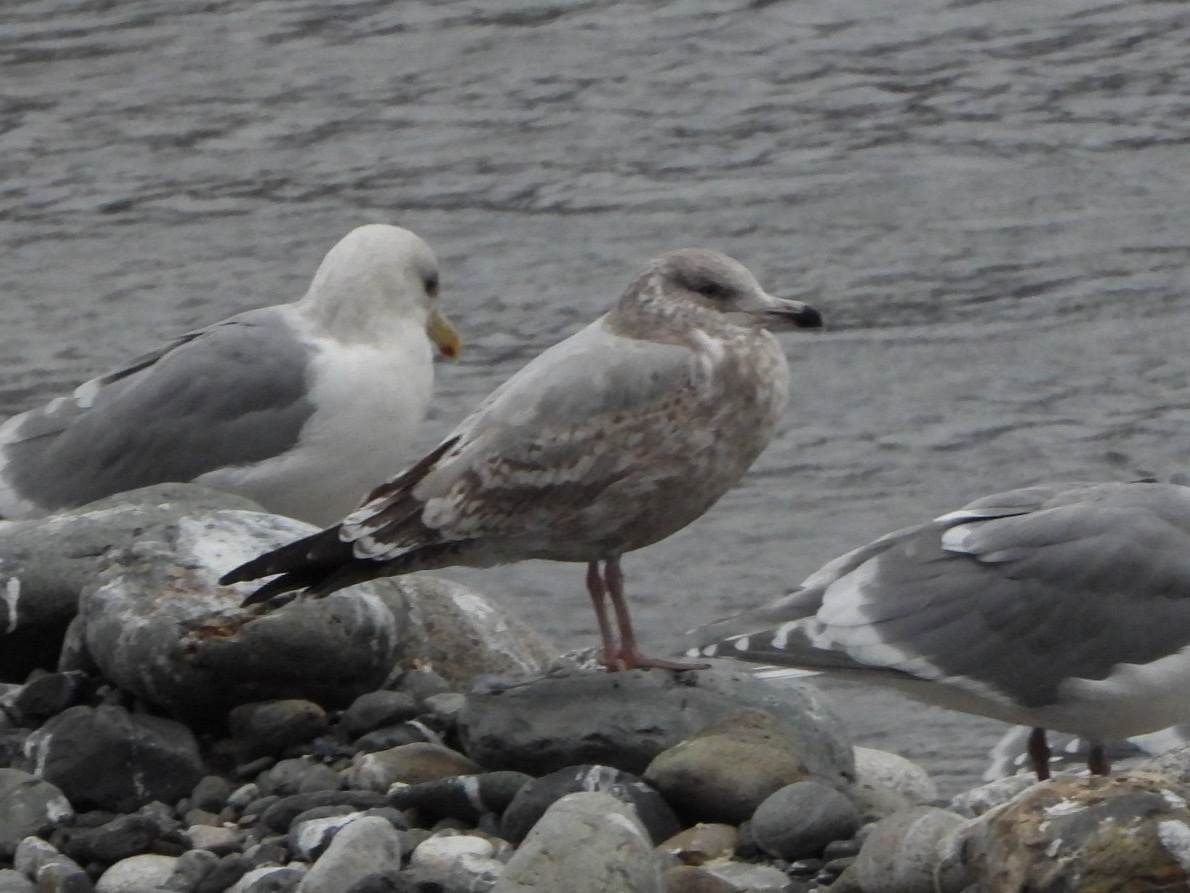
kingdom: Animalia
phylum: Chordata
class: Aves
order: Charadriiformes
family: Laridae
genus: Larus
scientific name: Larus argentatus
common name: Herring gull
